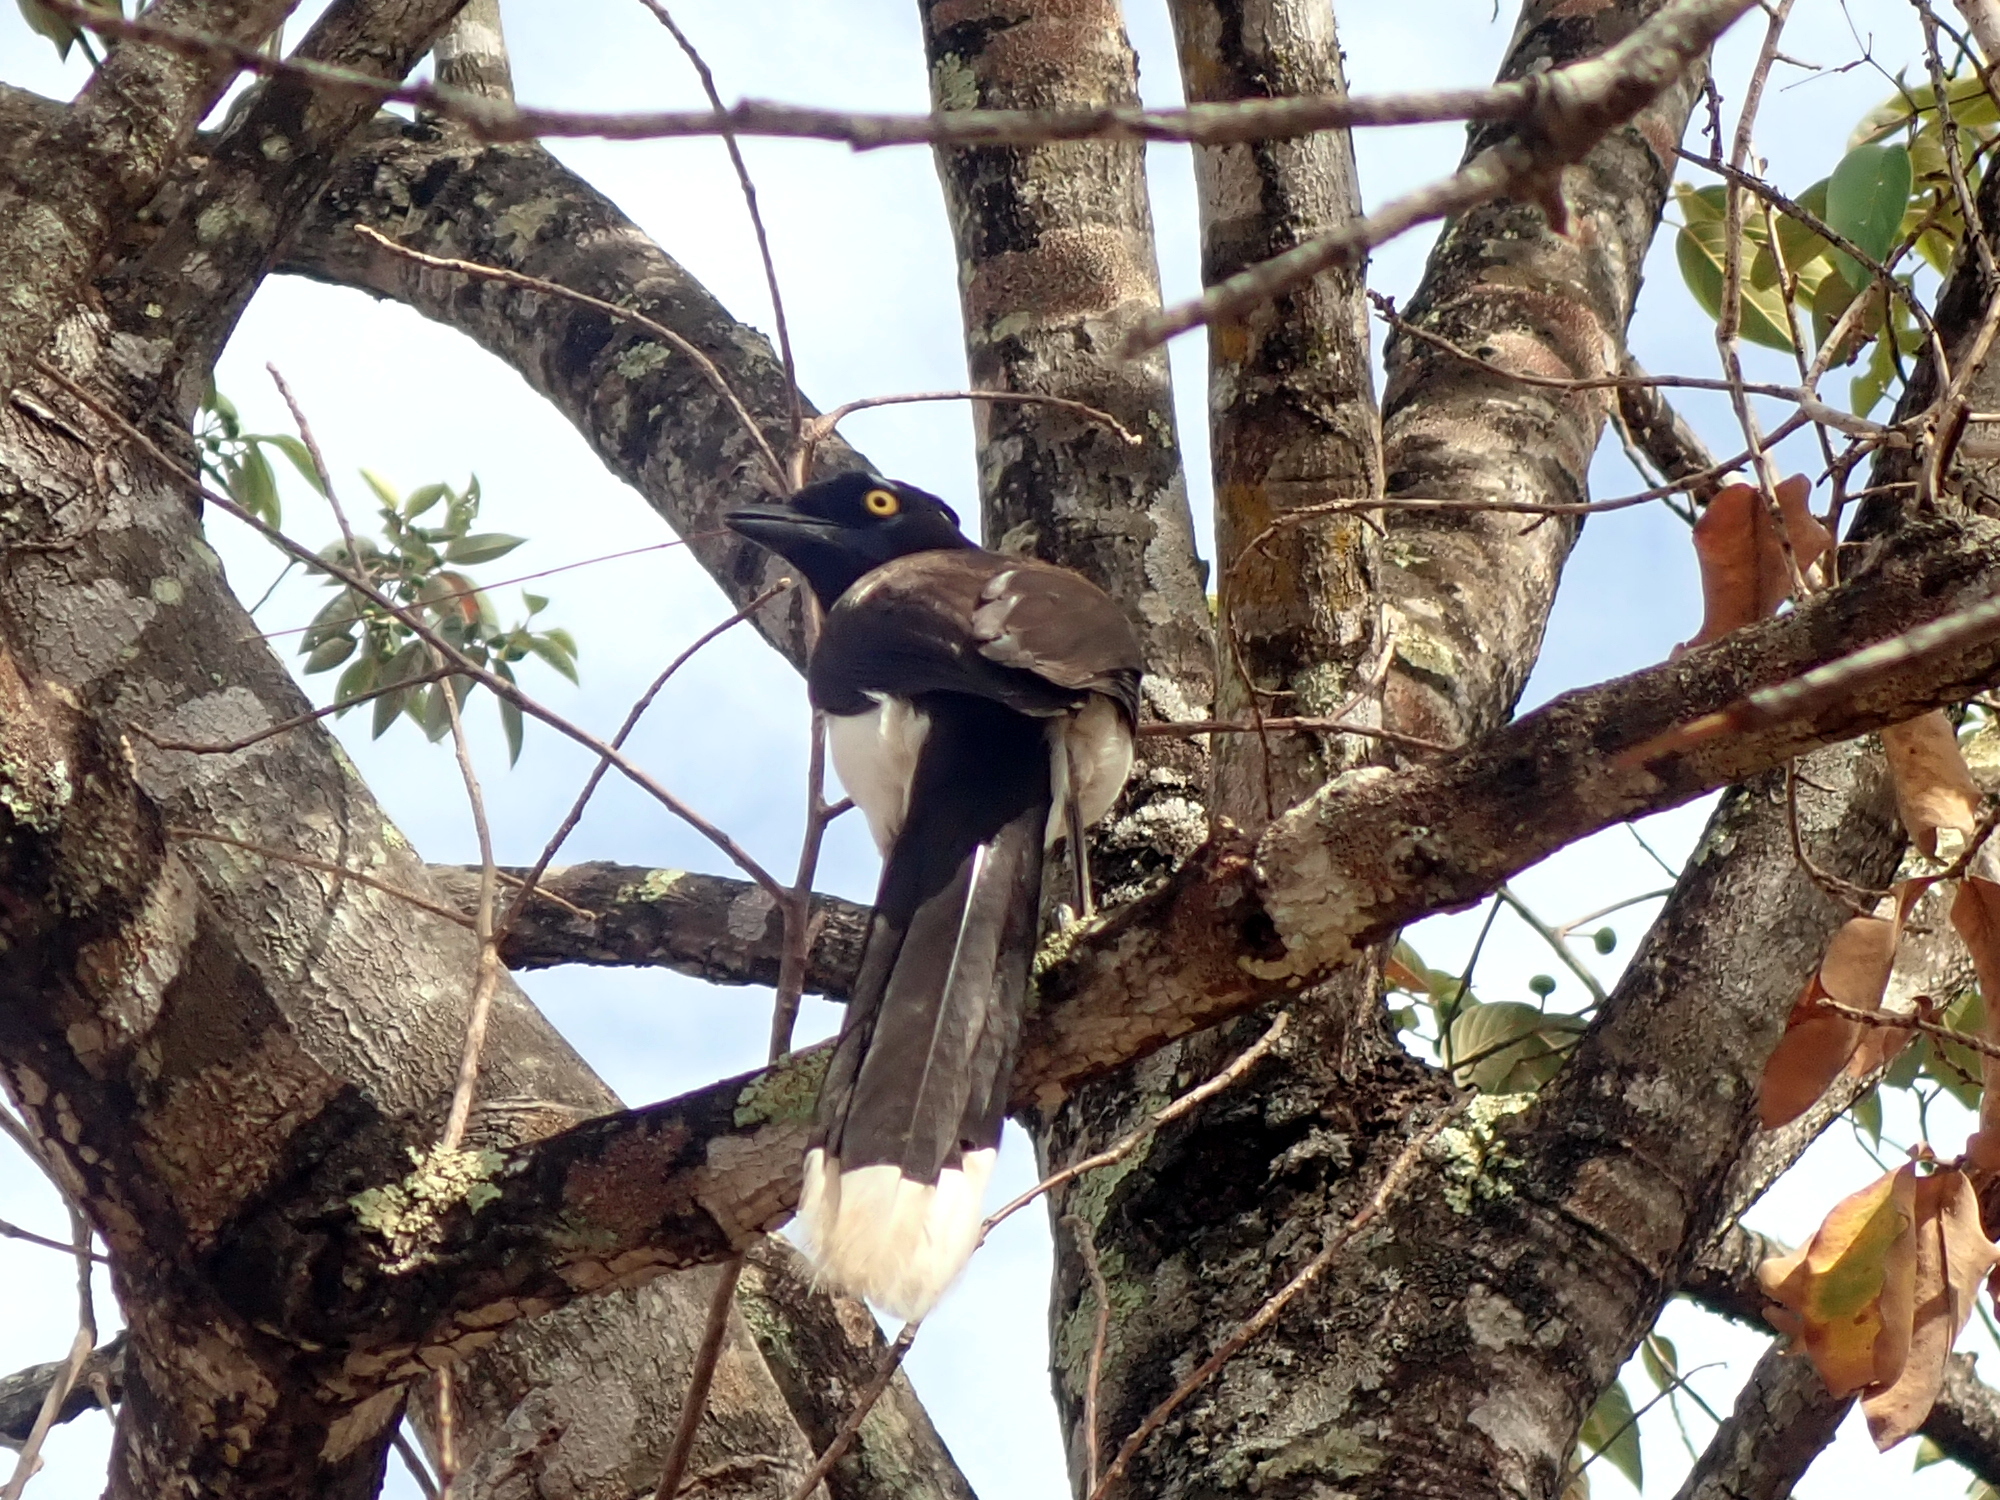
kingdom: Animalia
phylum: Chordata
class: Aves
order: Passeriformes
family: Corvidae
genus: Cyanocorax
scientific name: Cyanocorax cyanopogon
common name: White-naped jay
